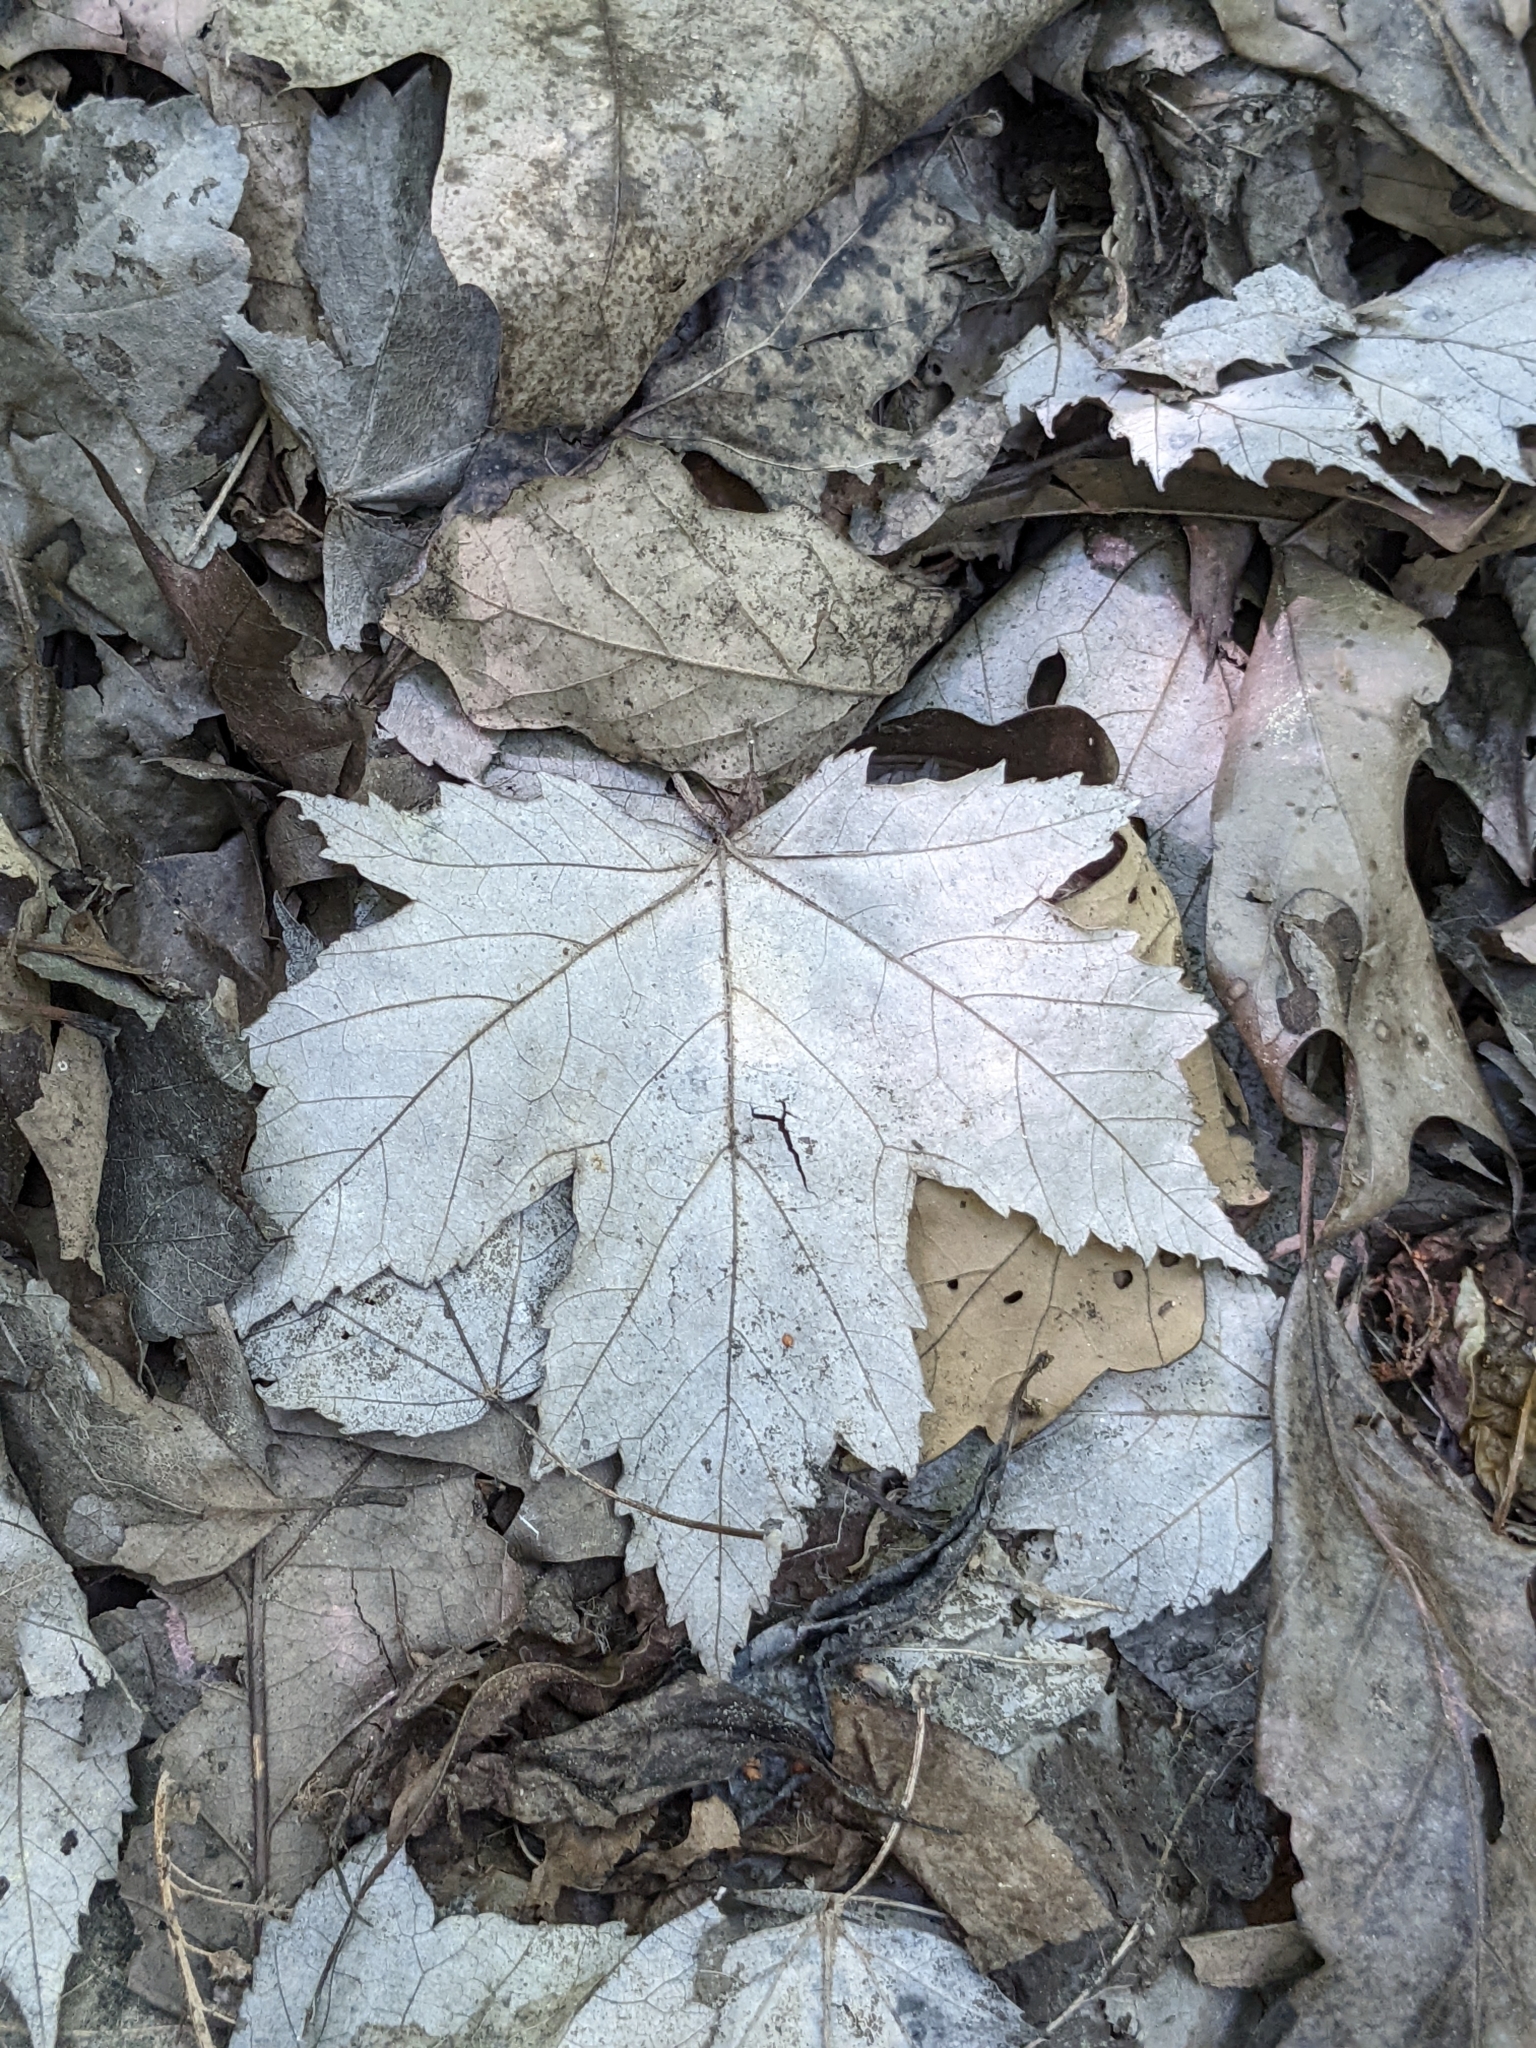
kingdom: Plantae
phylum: Tracheophyta
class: Magnoliopsida
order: Sapindales
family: Sapindaceae
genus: Acer
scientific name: Acer rubrum
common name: Red maple
